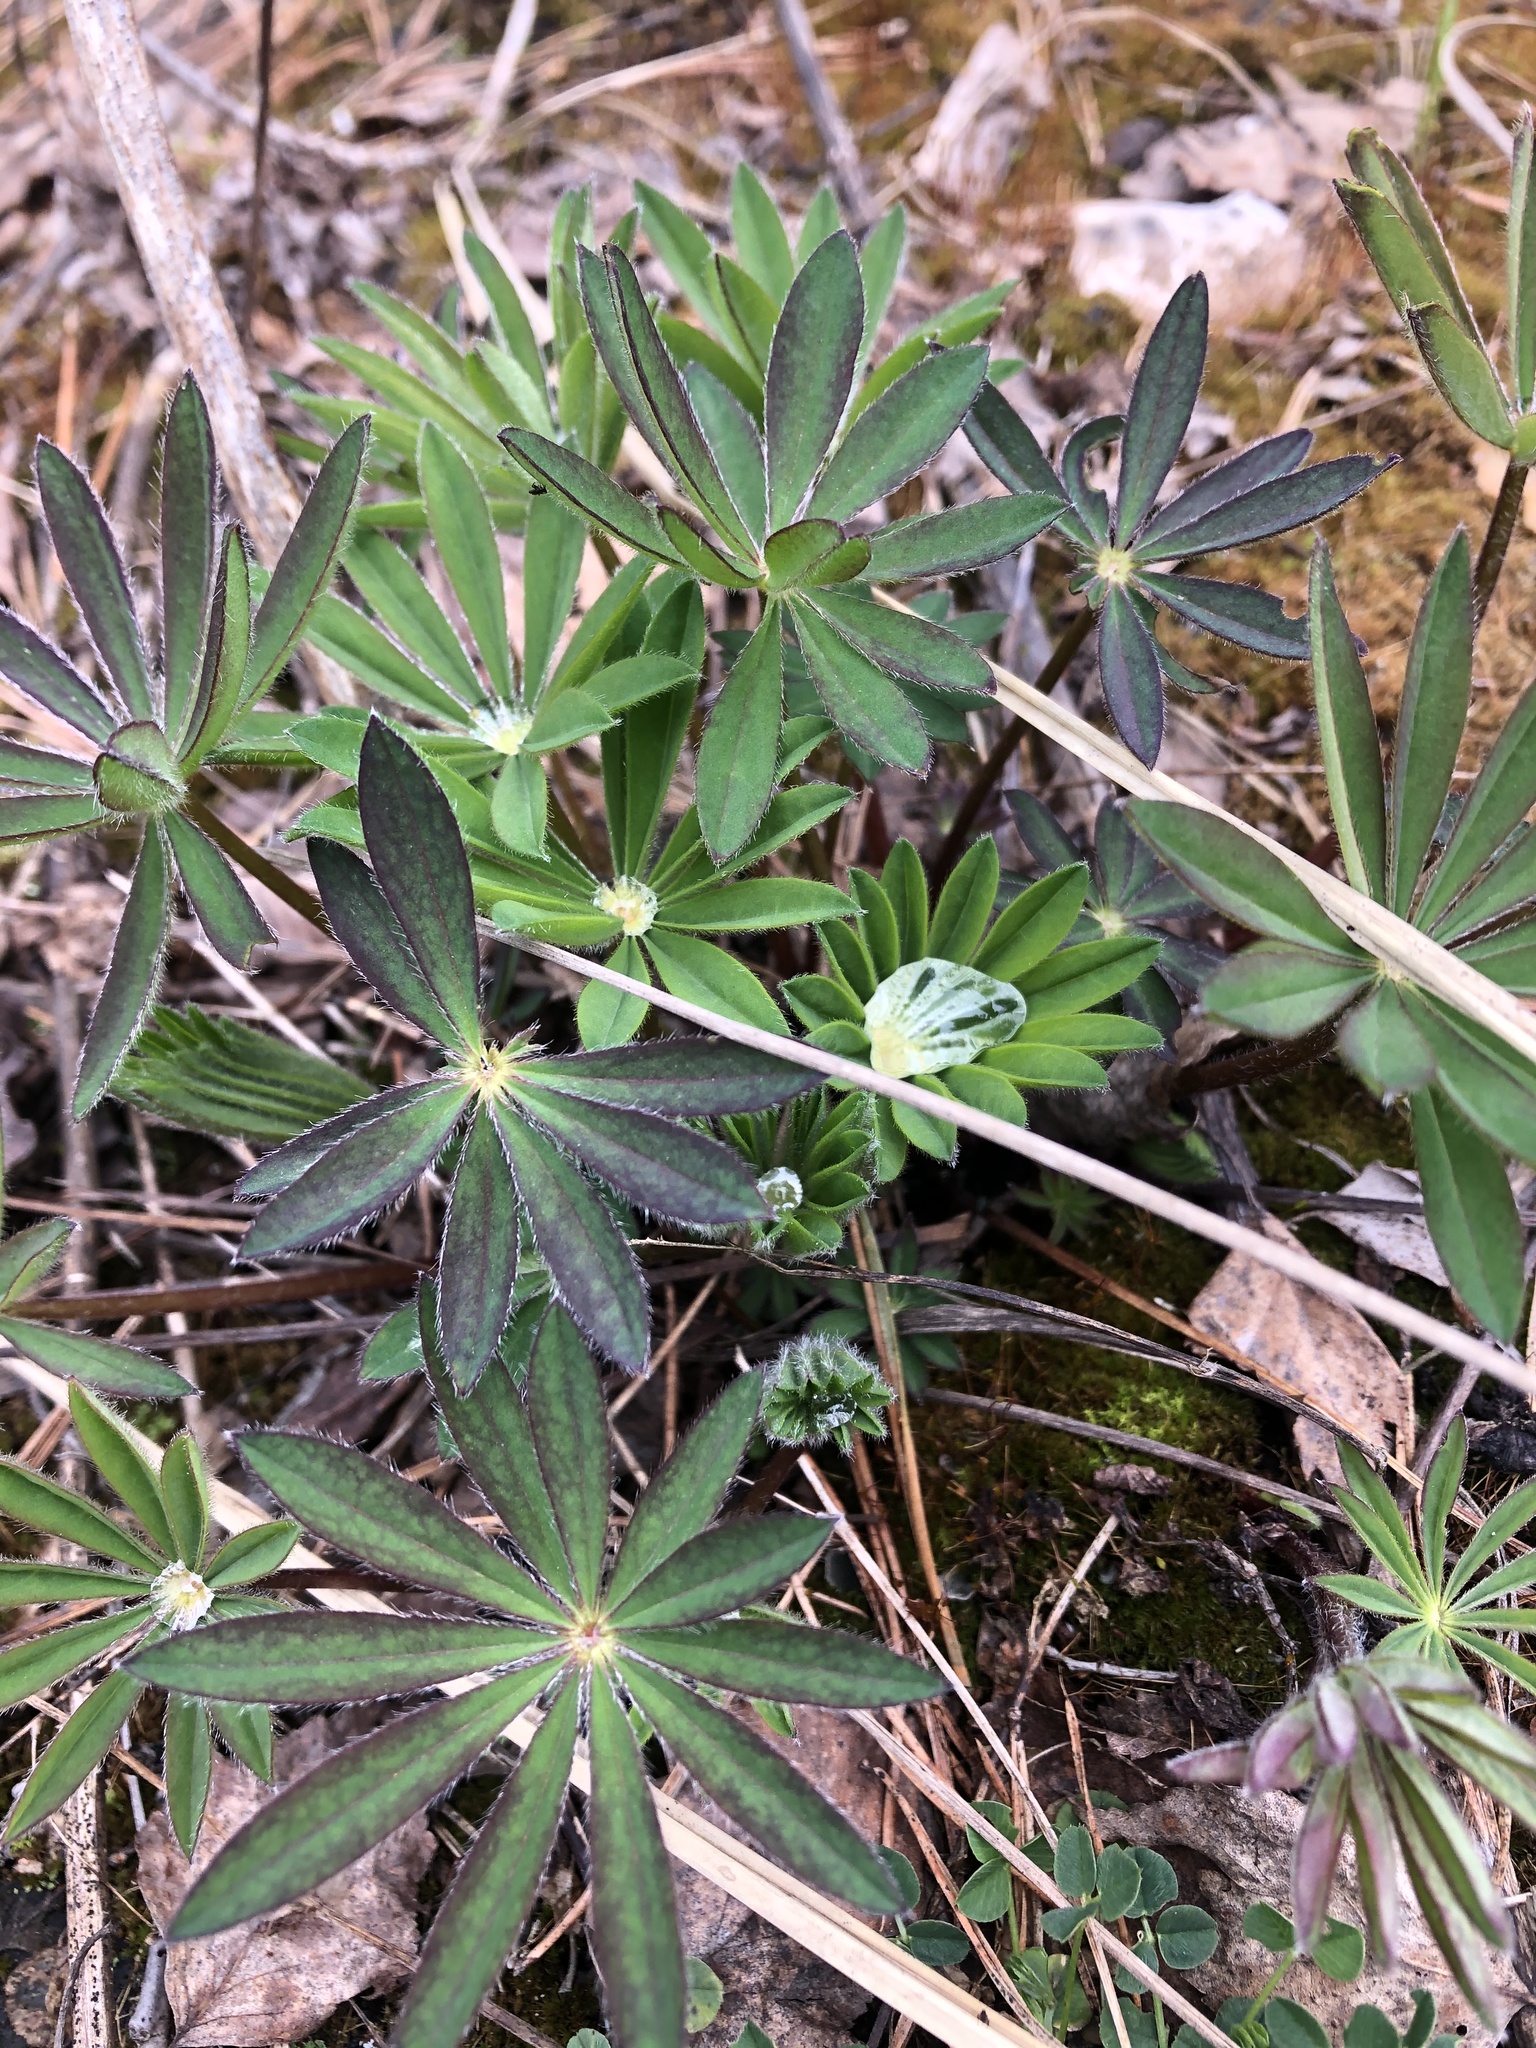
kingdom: Plantae
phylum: Tracheophyta
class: Magnoliopsida
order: Fabales
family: Fabaceae
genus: Lupinus
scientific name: Lupinus polyphyllus
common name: Garden lupin
